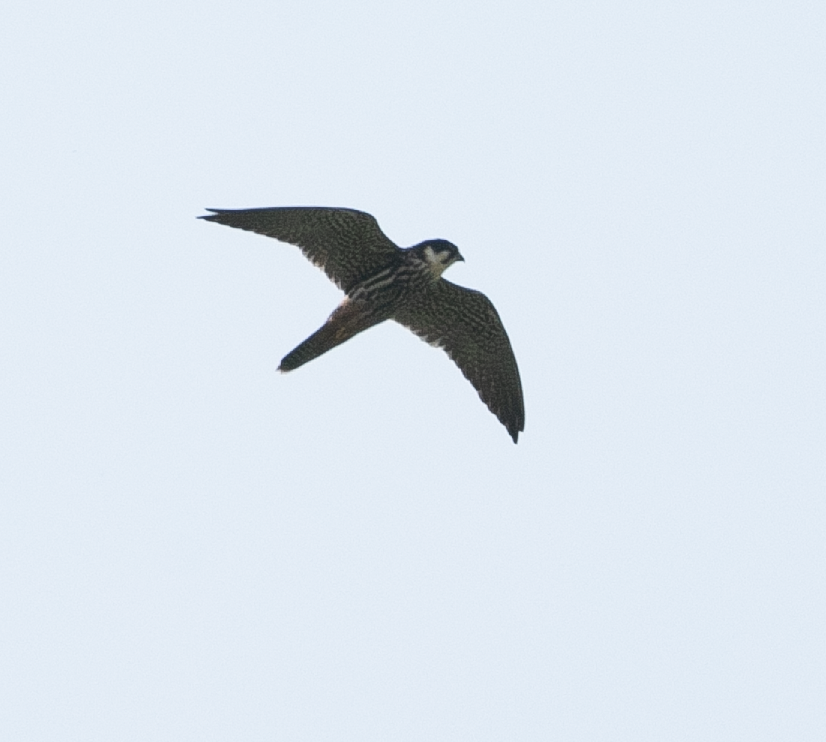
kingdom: Animalia
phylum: Chordata
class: Aves
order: Falconiformes
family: Falconidae
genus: Falco
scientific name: Falco subbuteo
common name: Eurasian hobby
